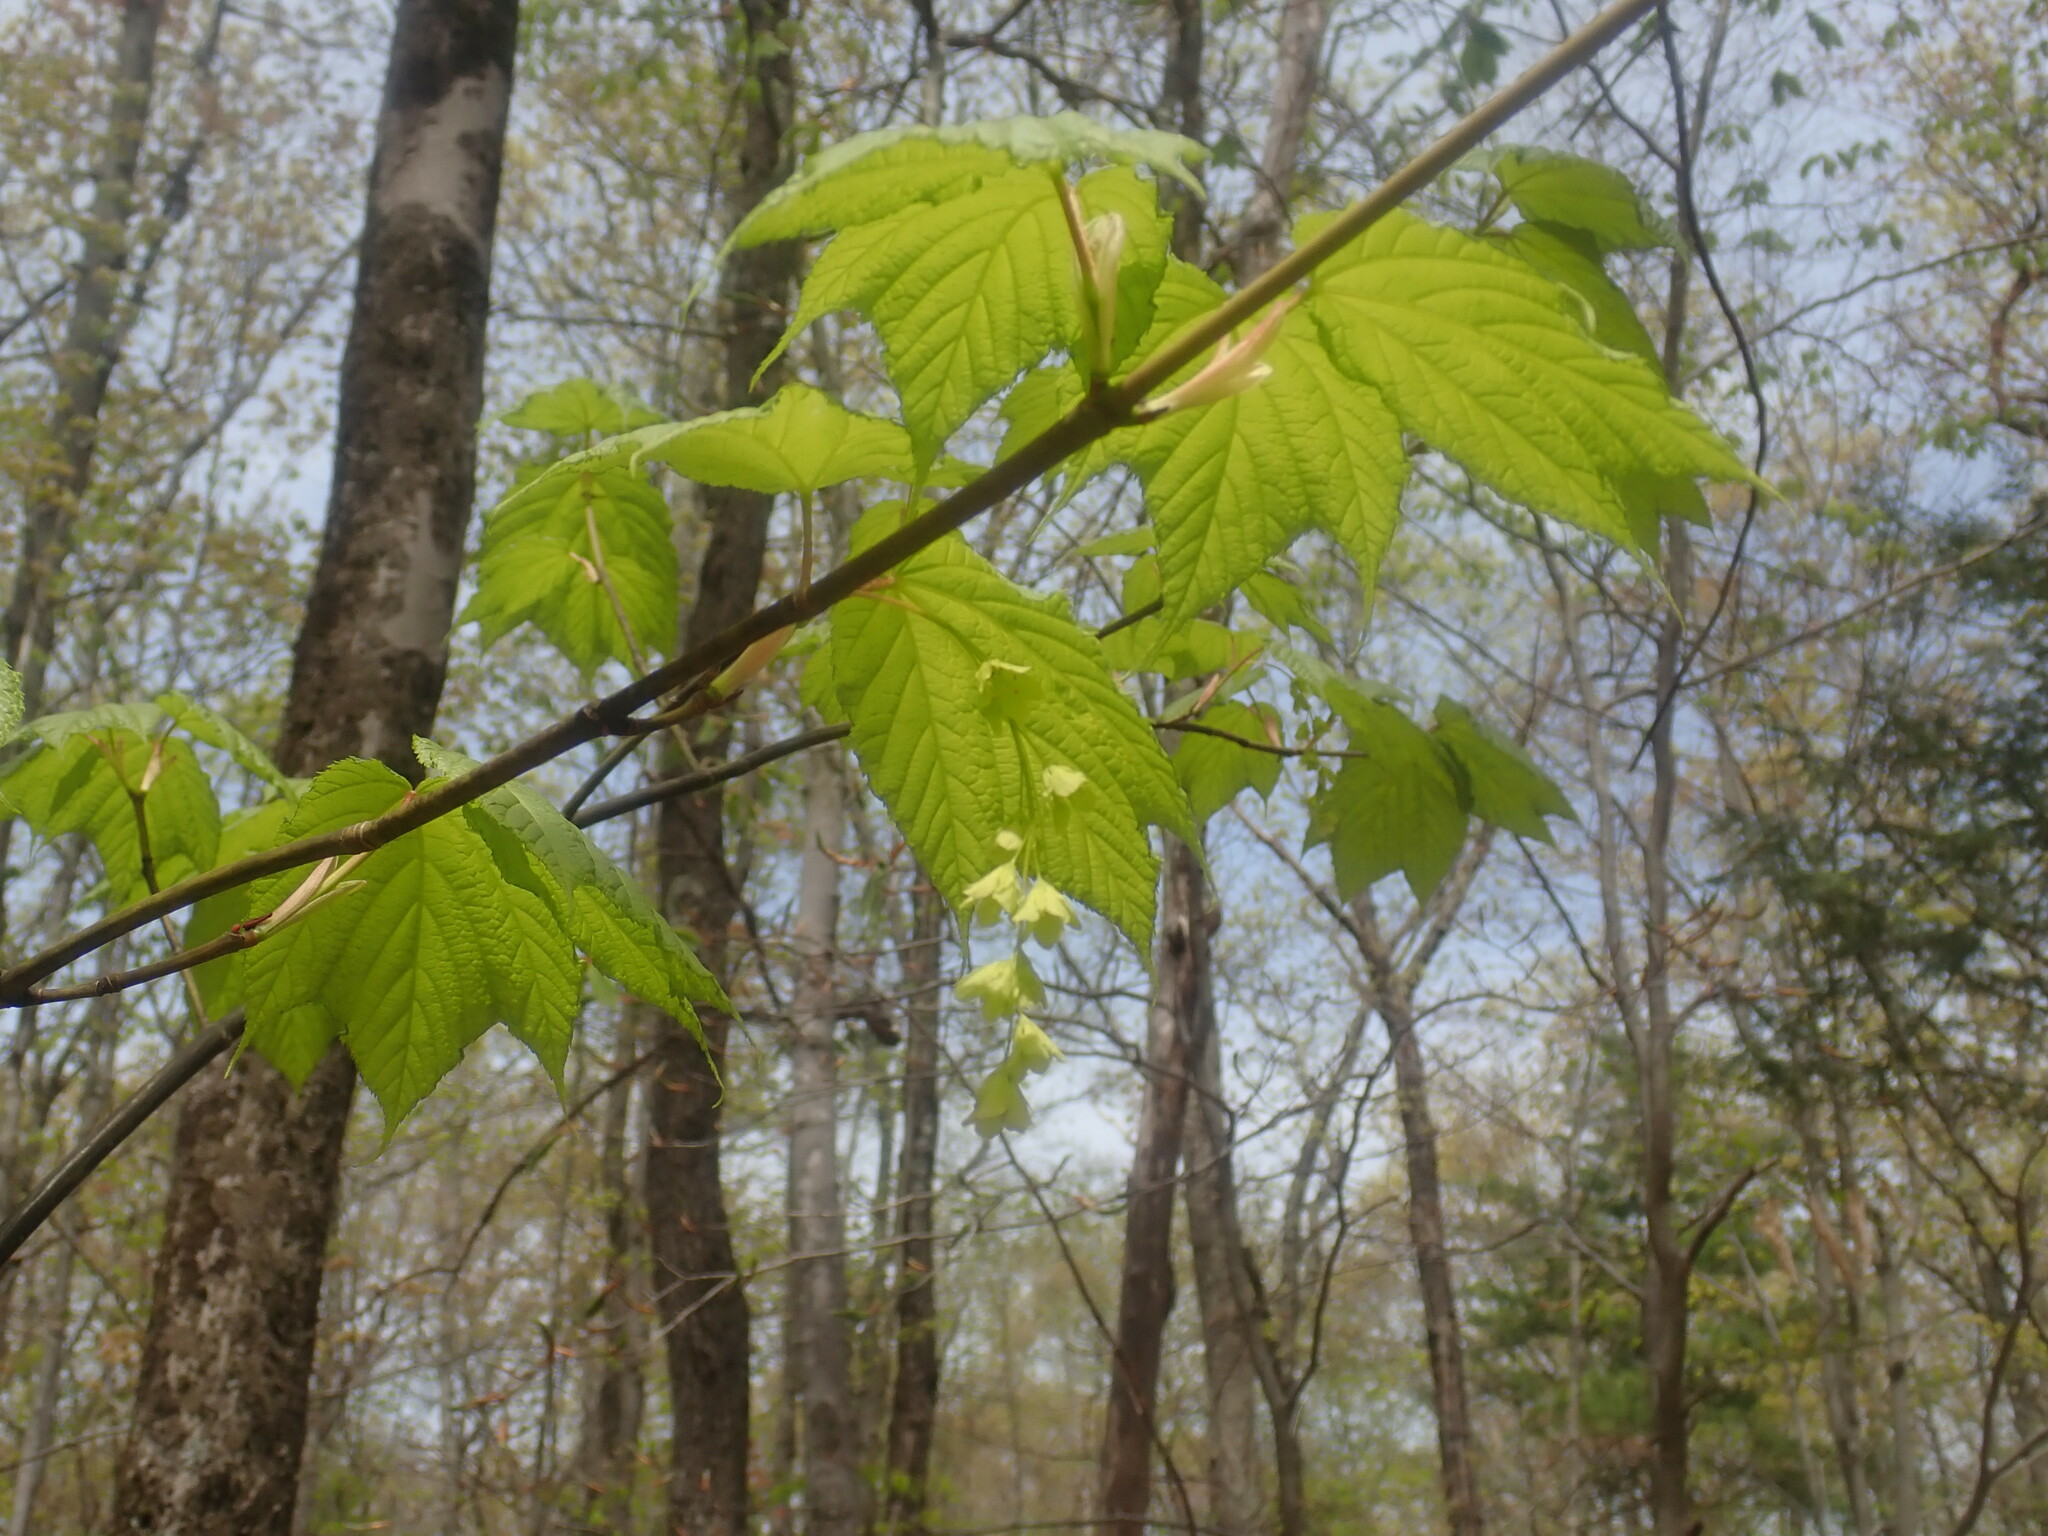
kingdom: Plantae
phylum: Tracheophyta
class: Magnoliopsida
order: Sapindales
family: Sapindaceae
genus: Acer
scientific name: Acer pensylvanicum
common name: Moosewood
